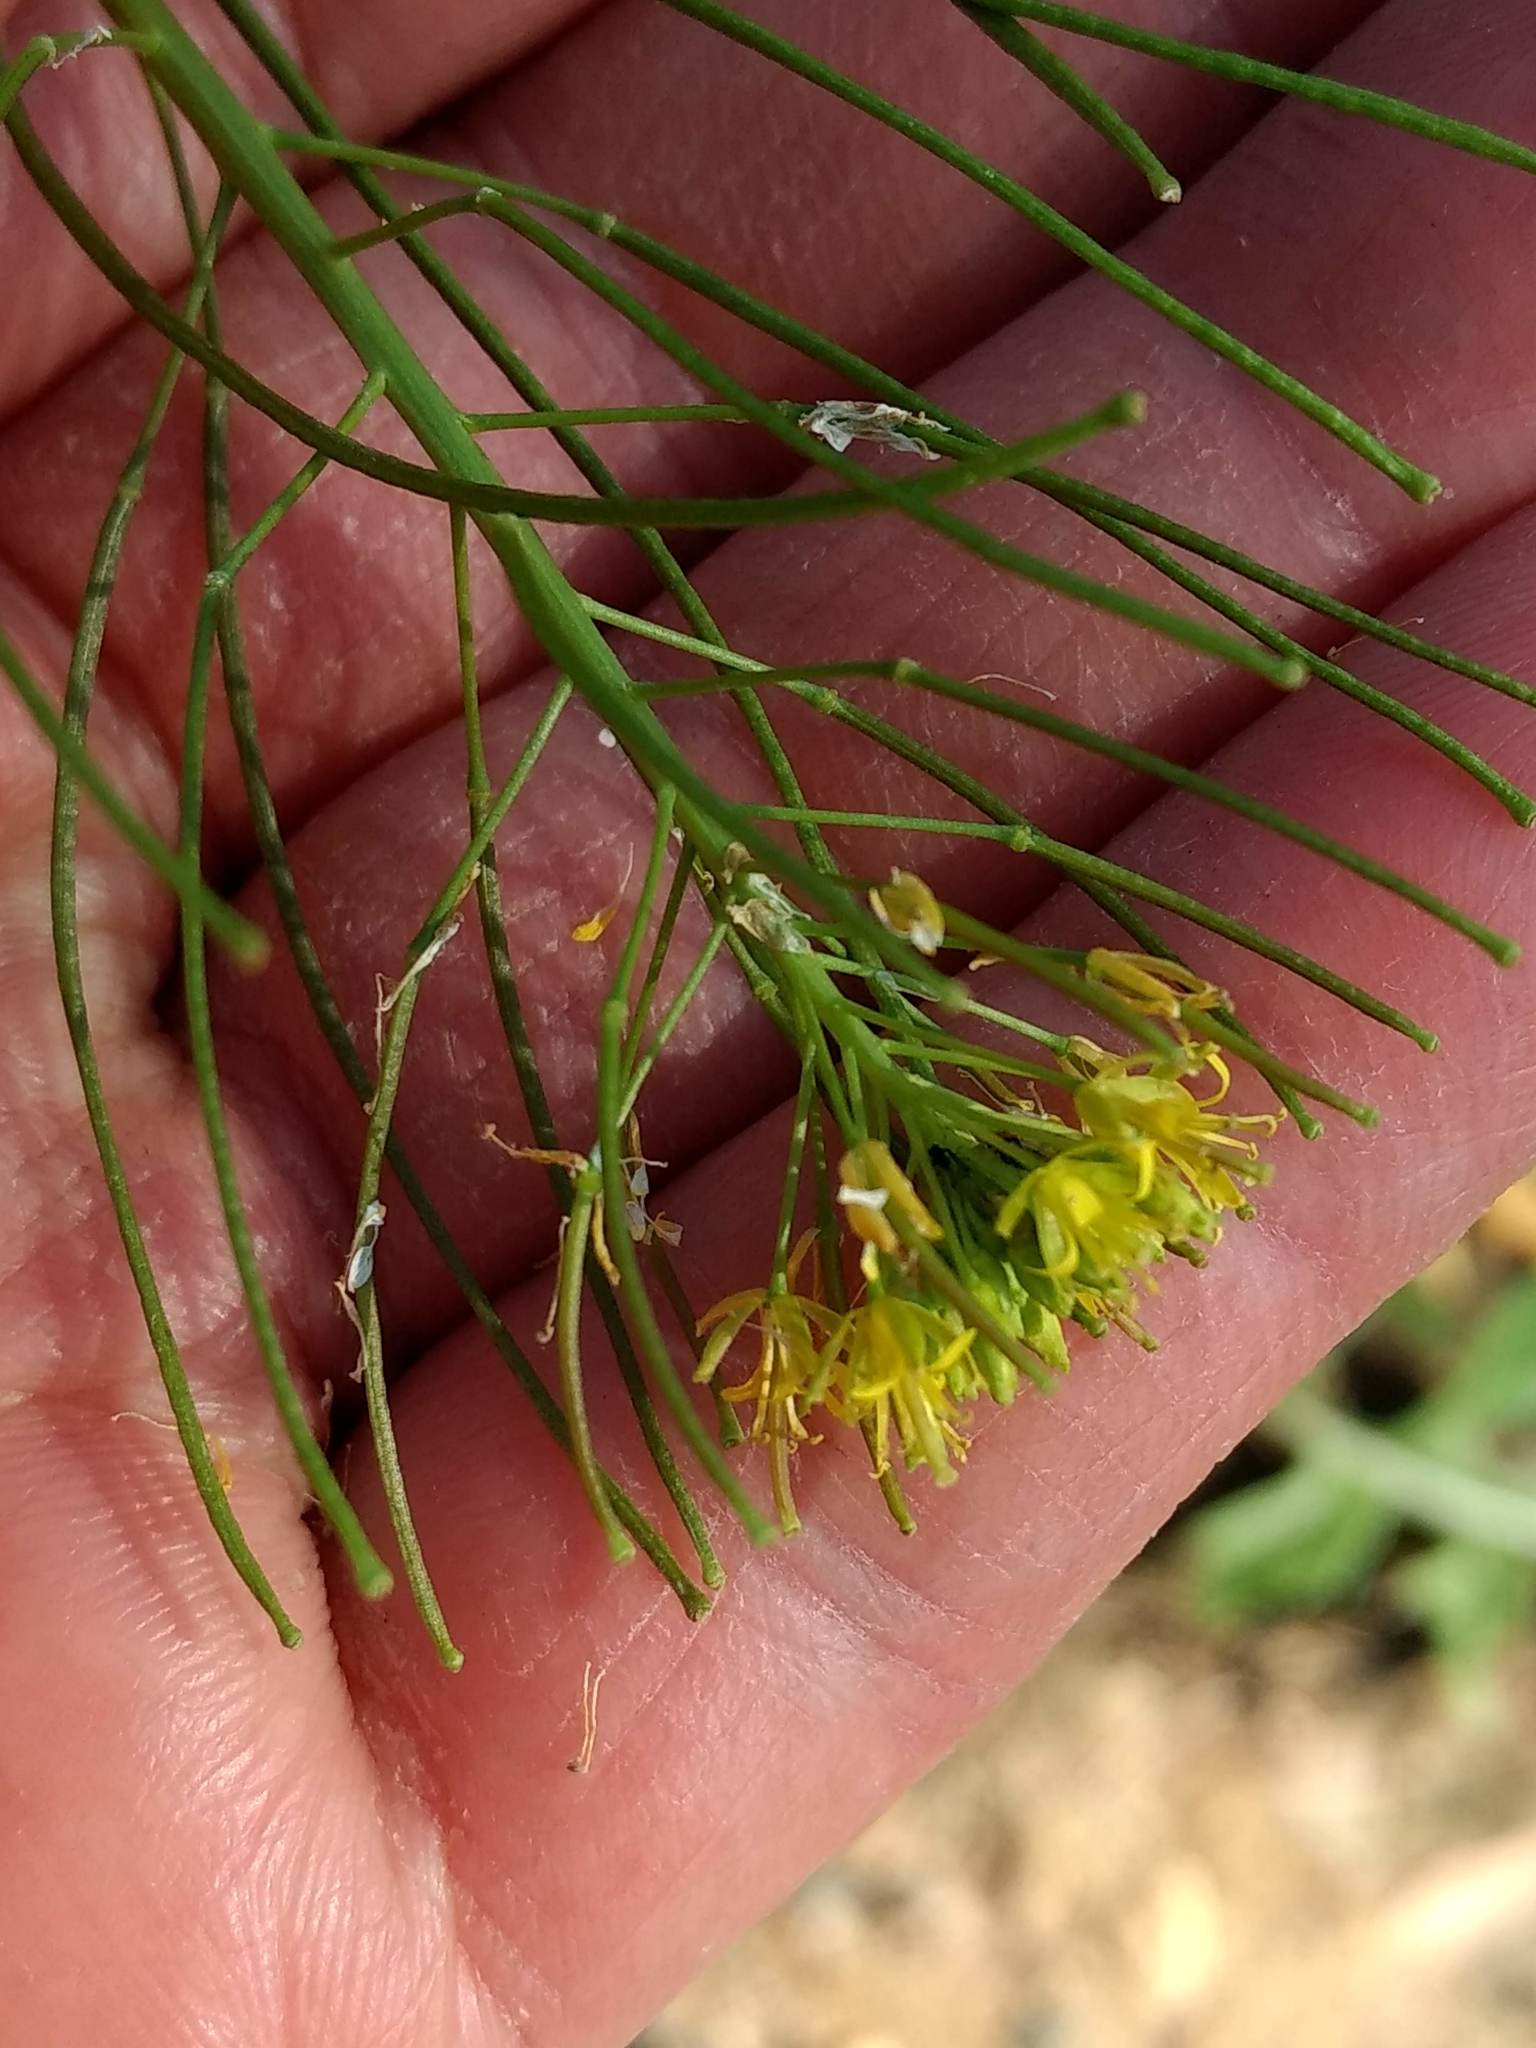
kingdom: Plantae
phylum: Tracheophyta
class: Magnoliopsida
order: Brassicales
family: Brassicaceae
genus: Sisymbrium
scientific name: Sisymbrium irio
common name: London rocket
